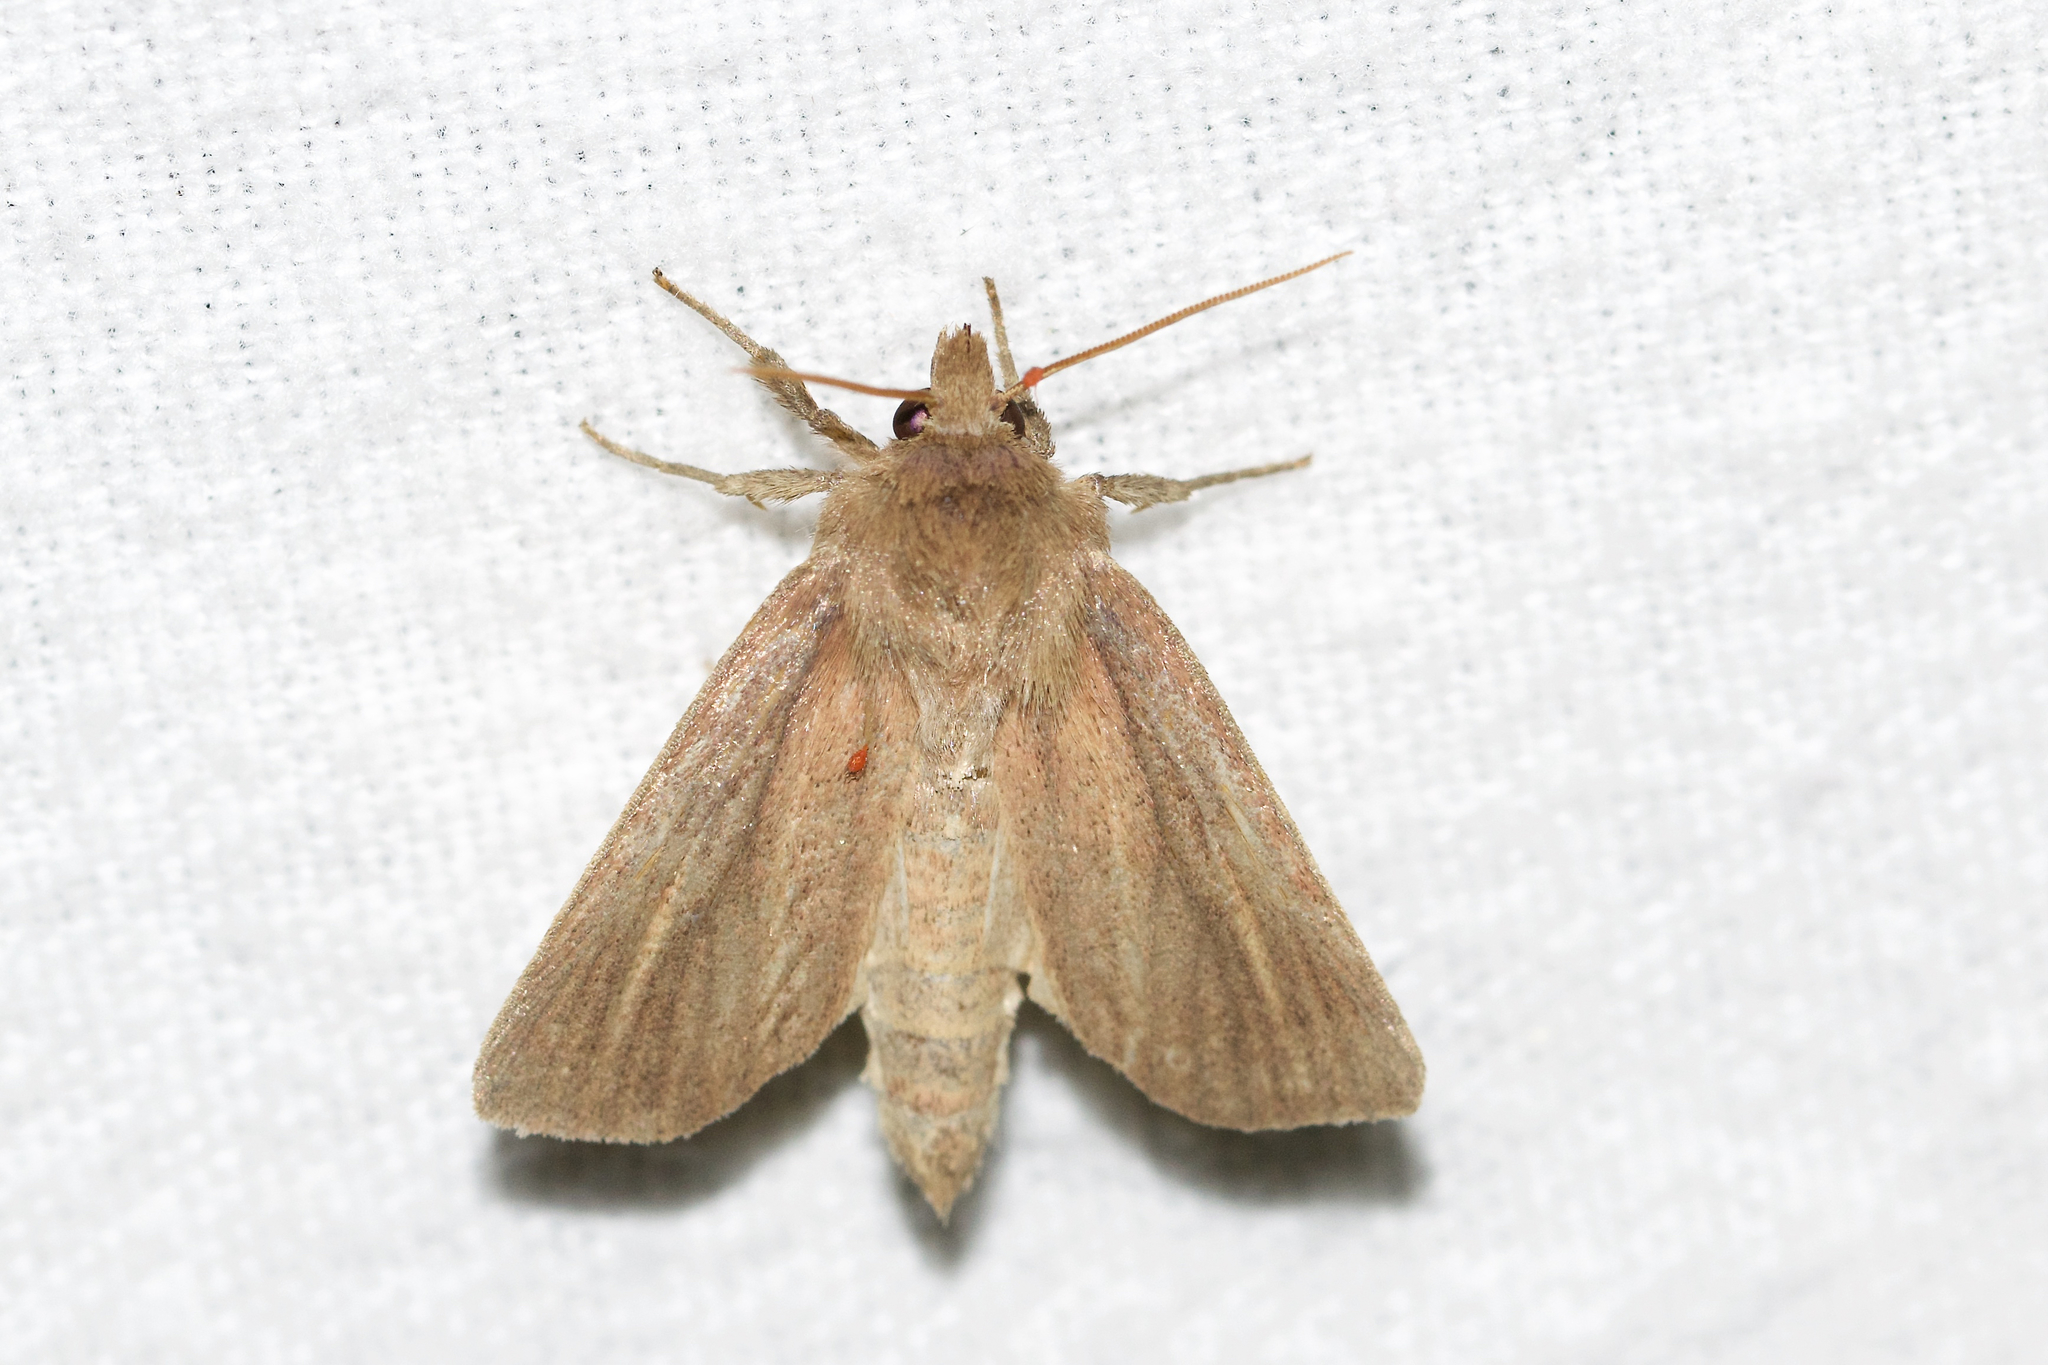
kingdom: Animalia
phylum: Arthropoda
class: Insecta
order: Lepidoptera
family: Noctuidae
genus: Globia
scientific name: Globia laeta
